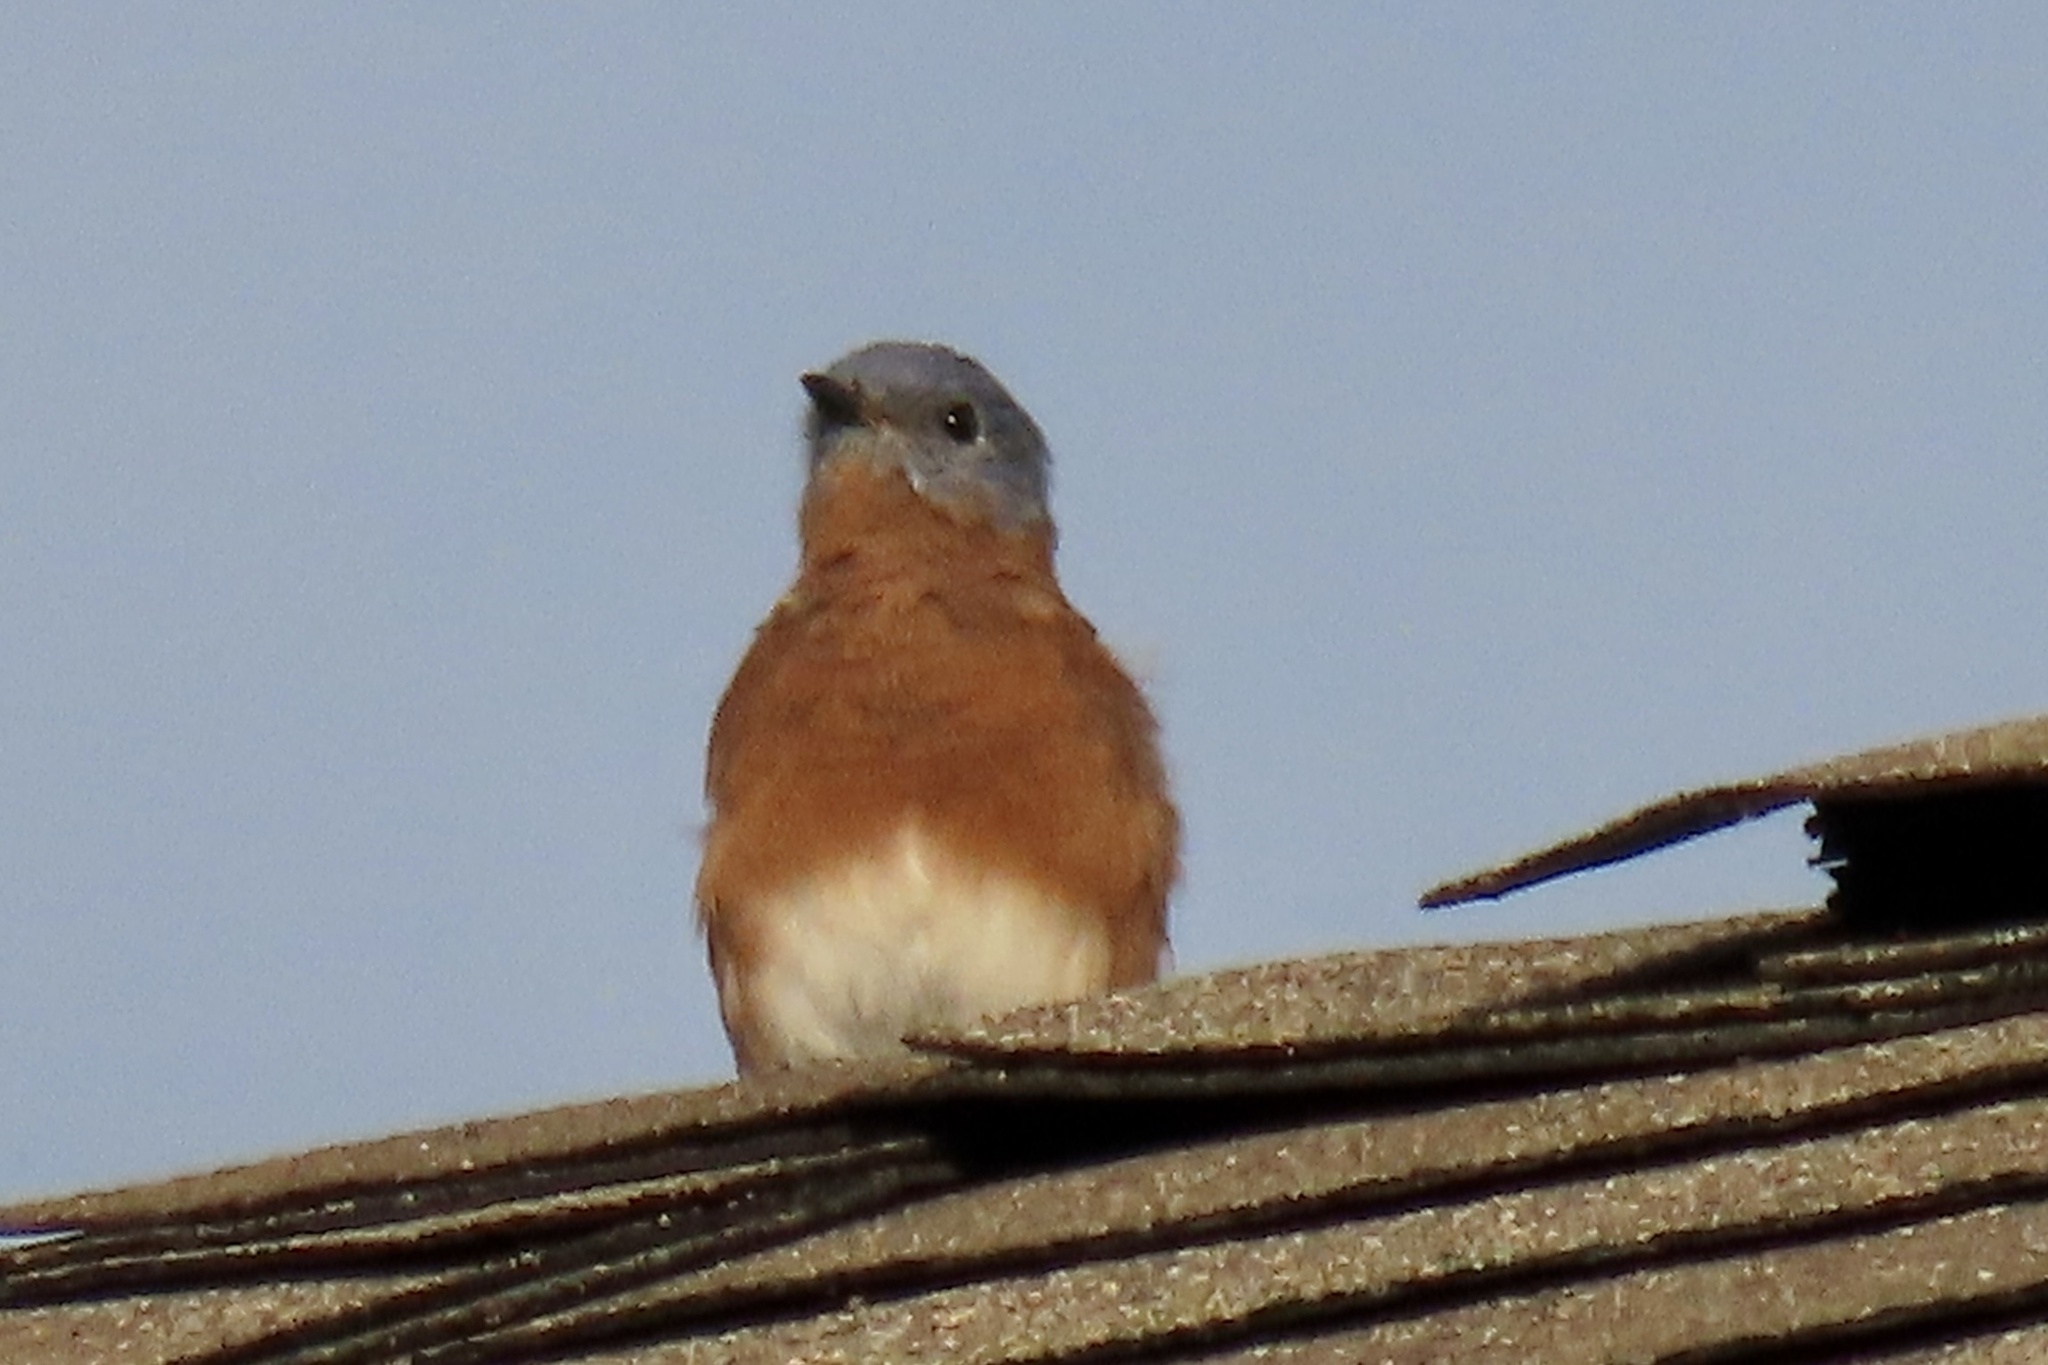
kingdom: Animalia
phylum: Chordata
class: Aves
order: Passeriformes
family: Turdidae
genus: Sialia
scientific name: Sialia sialis
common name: Eastern bluebird
